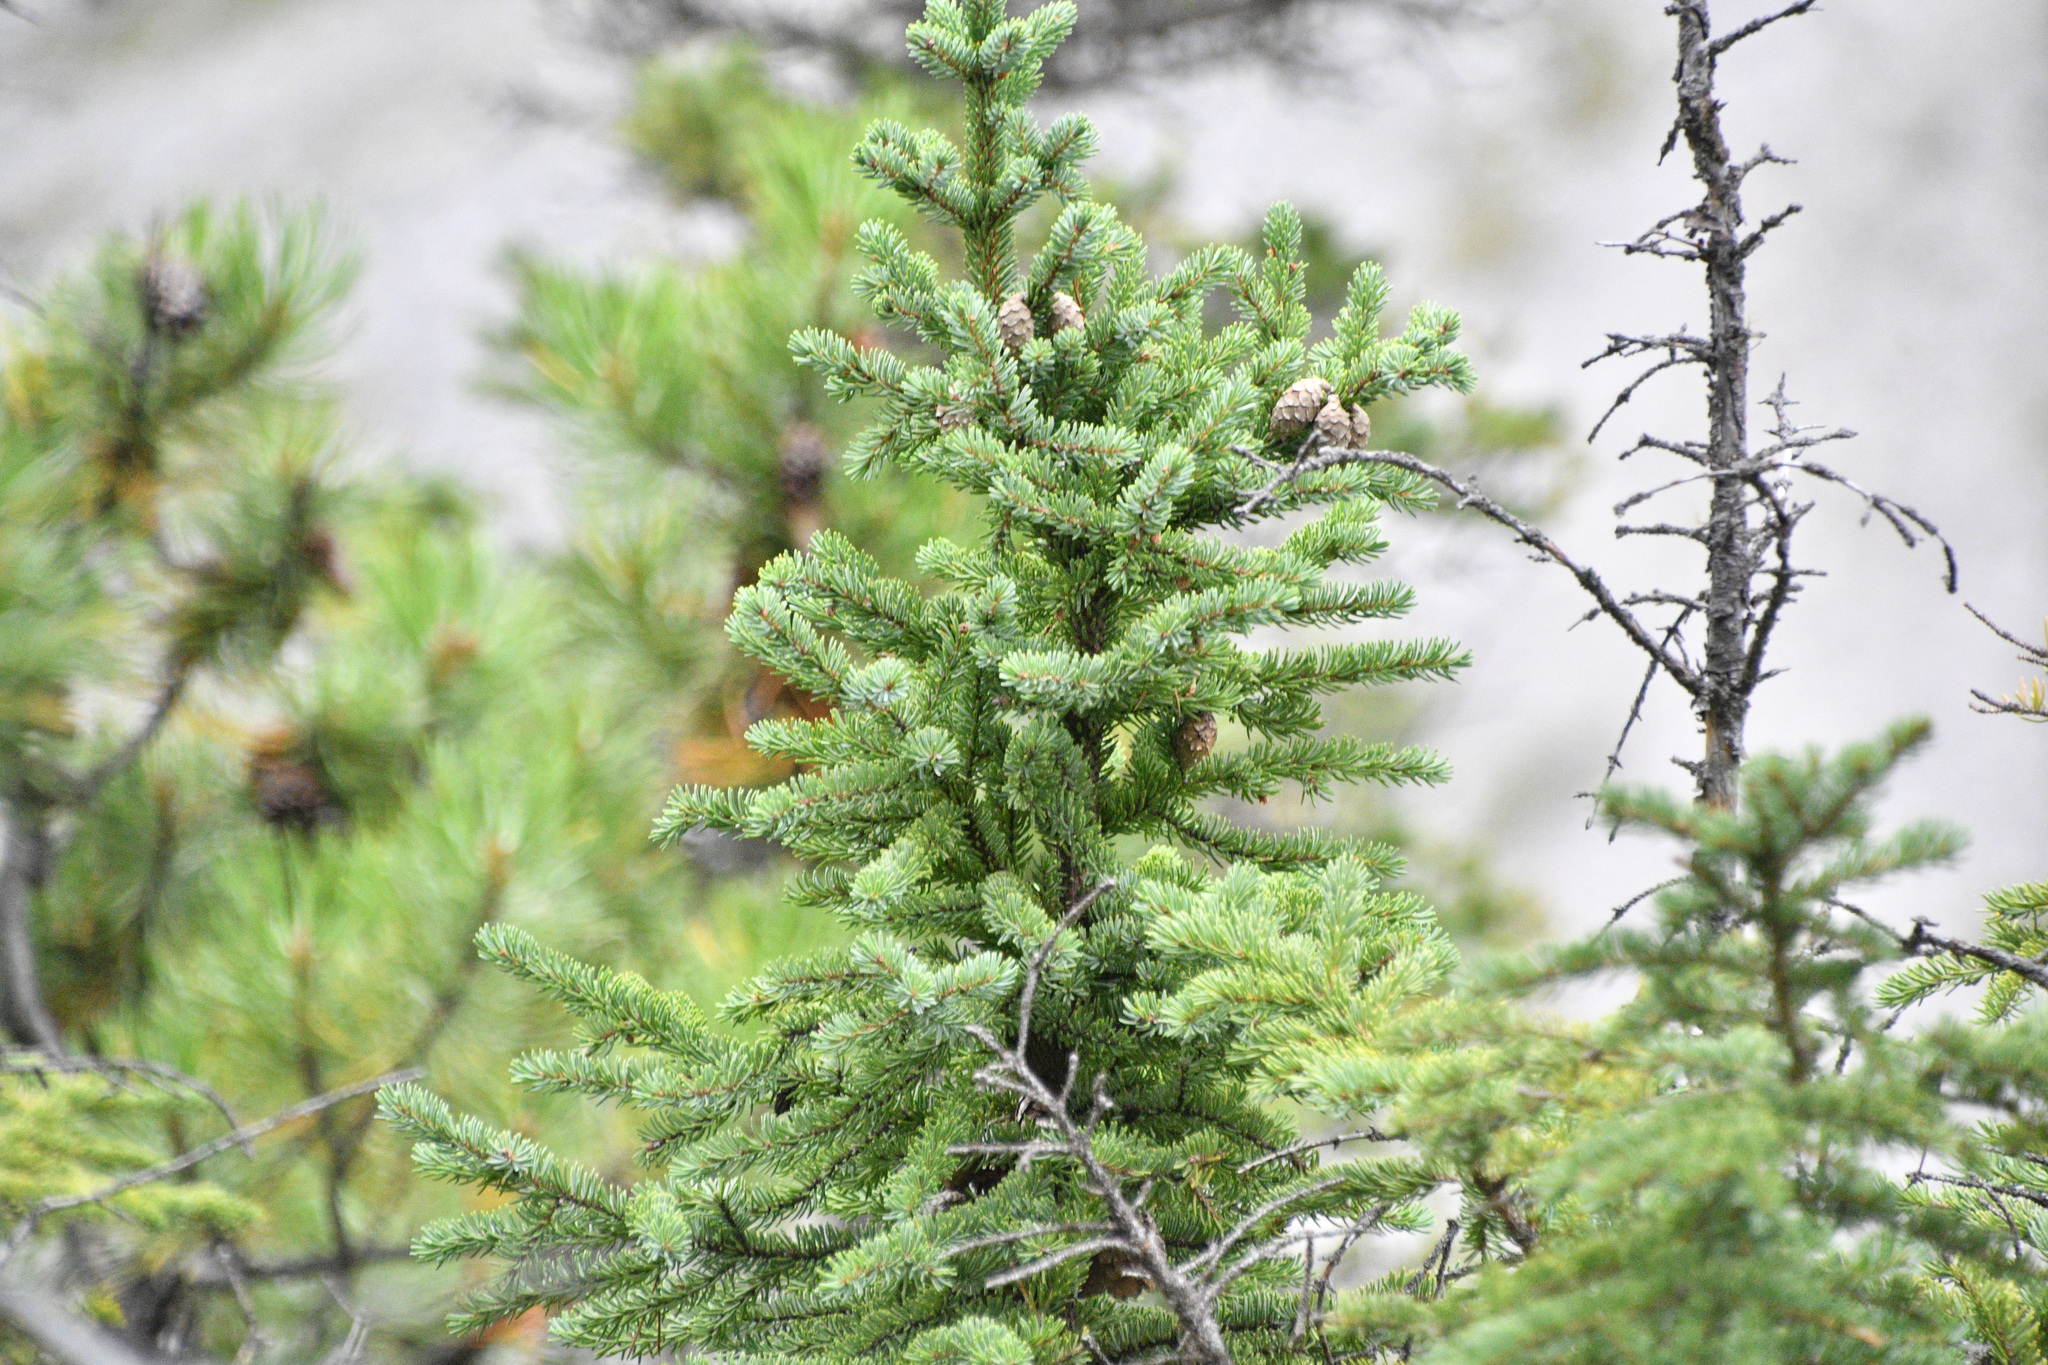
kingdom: Plantae
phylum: Tracheophyta
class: Pinopsida
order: Pinales
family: Pinaceae
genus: Picea
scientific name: Picea mariana
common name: Black spruce
